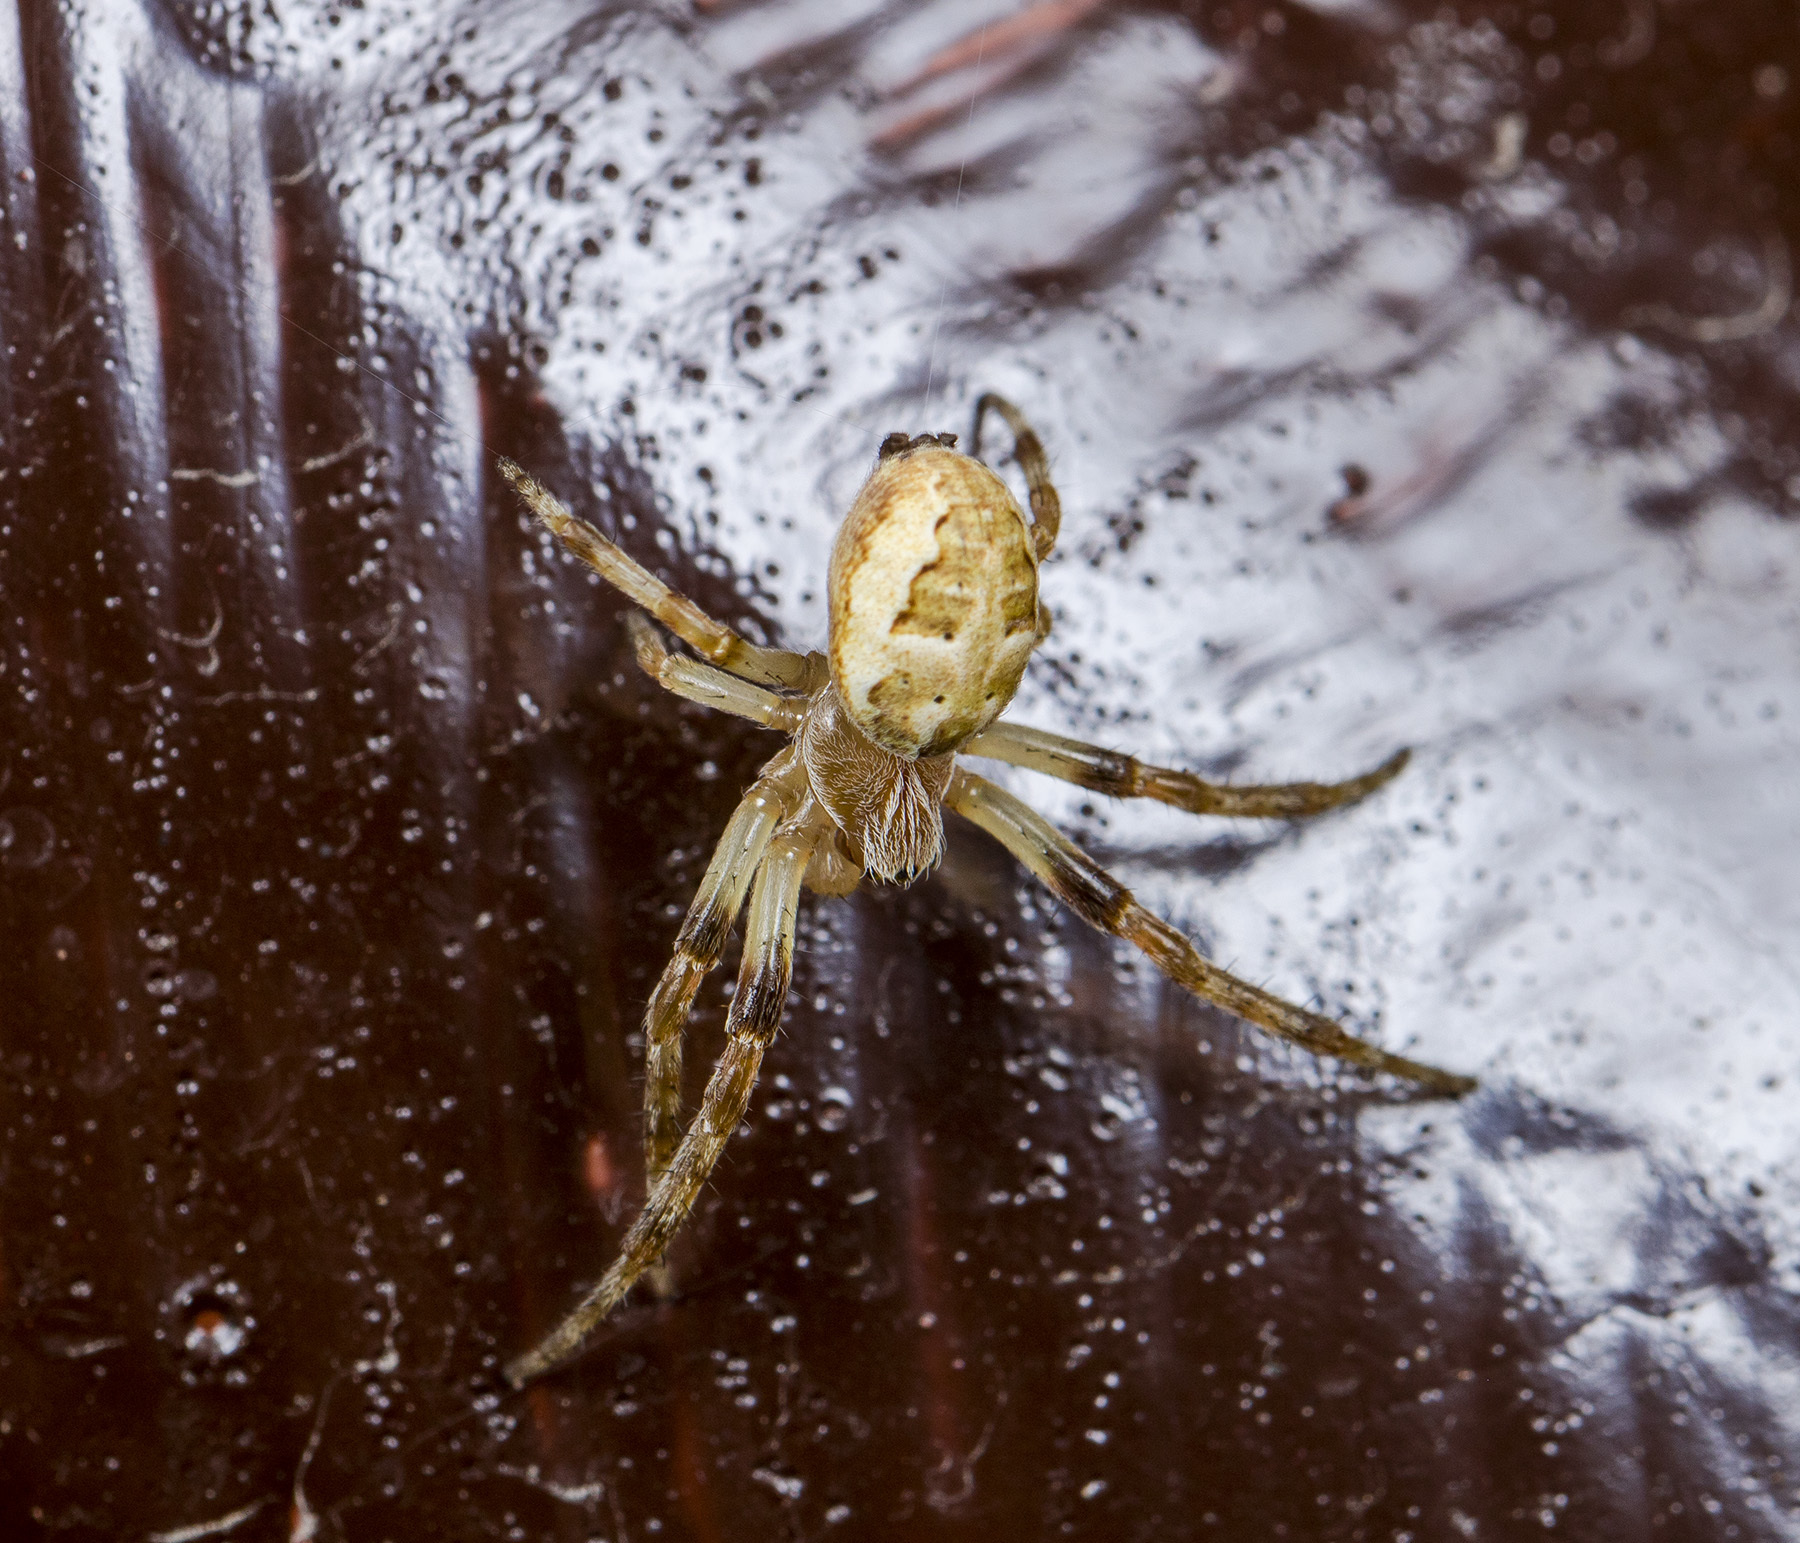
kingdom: Animalia
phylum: Arthropoda
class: Arachnida
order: Araneae
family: Araneidae
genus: Larinioides
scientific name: Larinioides suspicax
